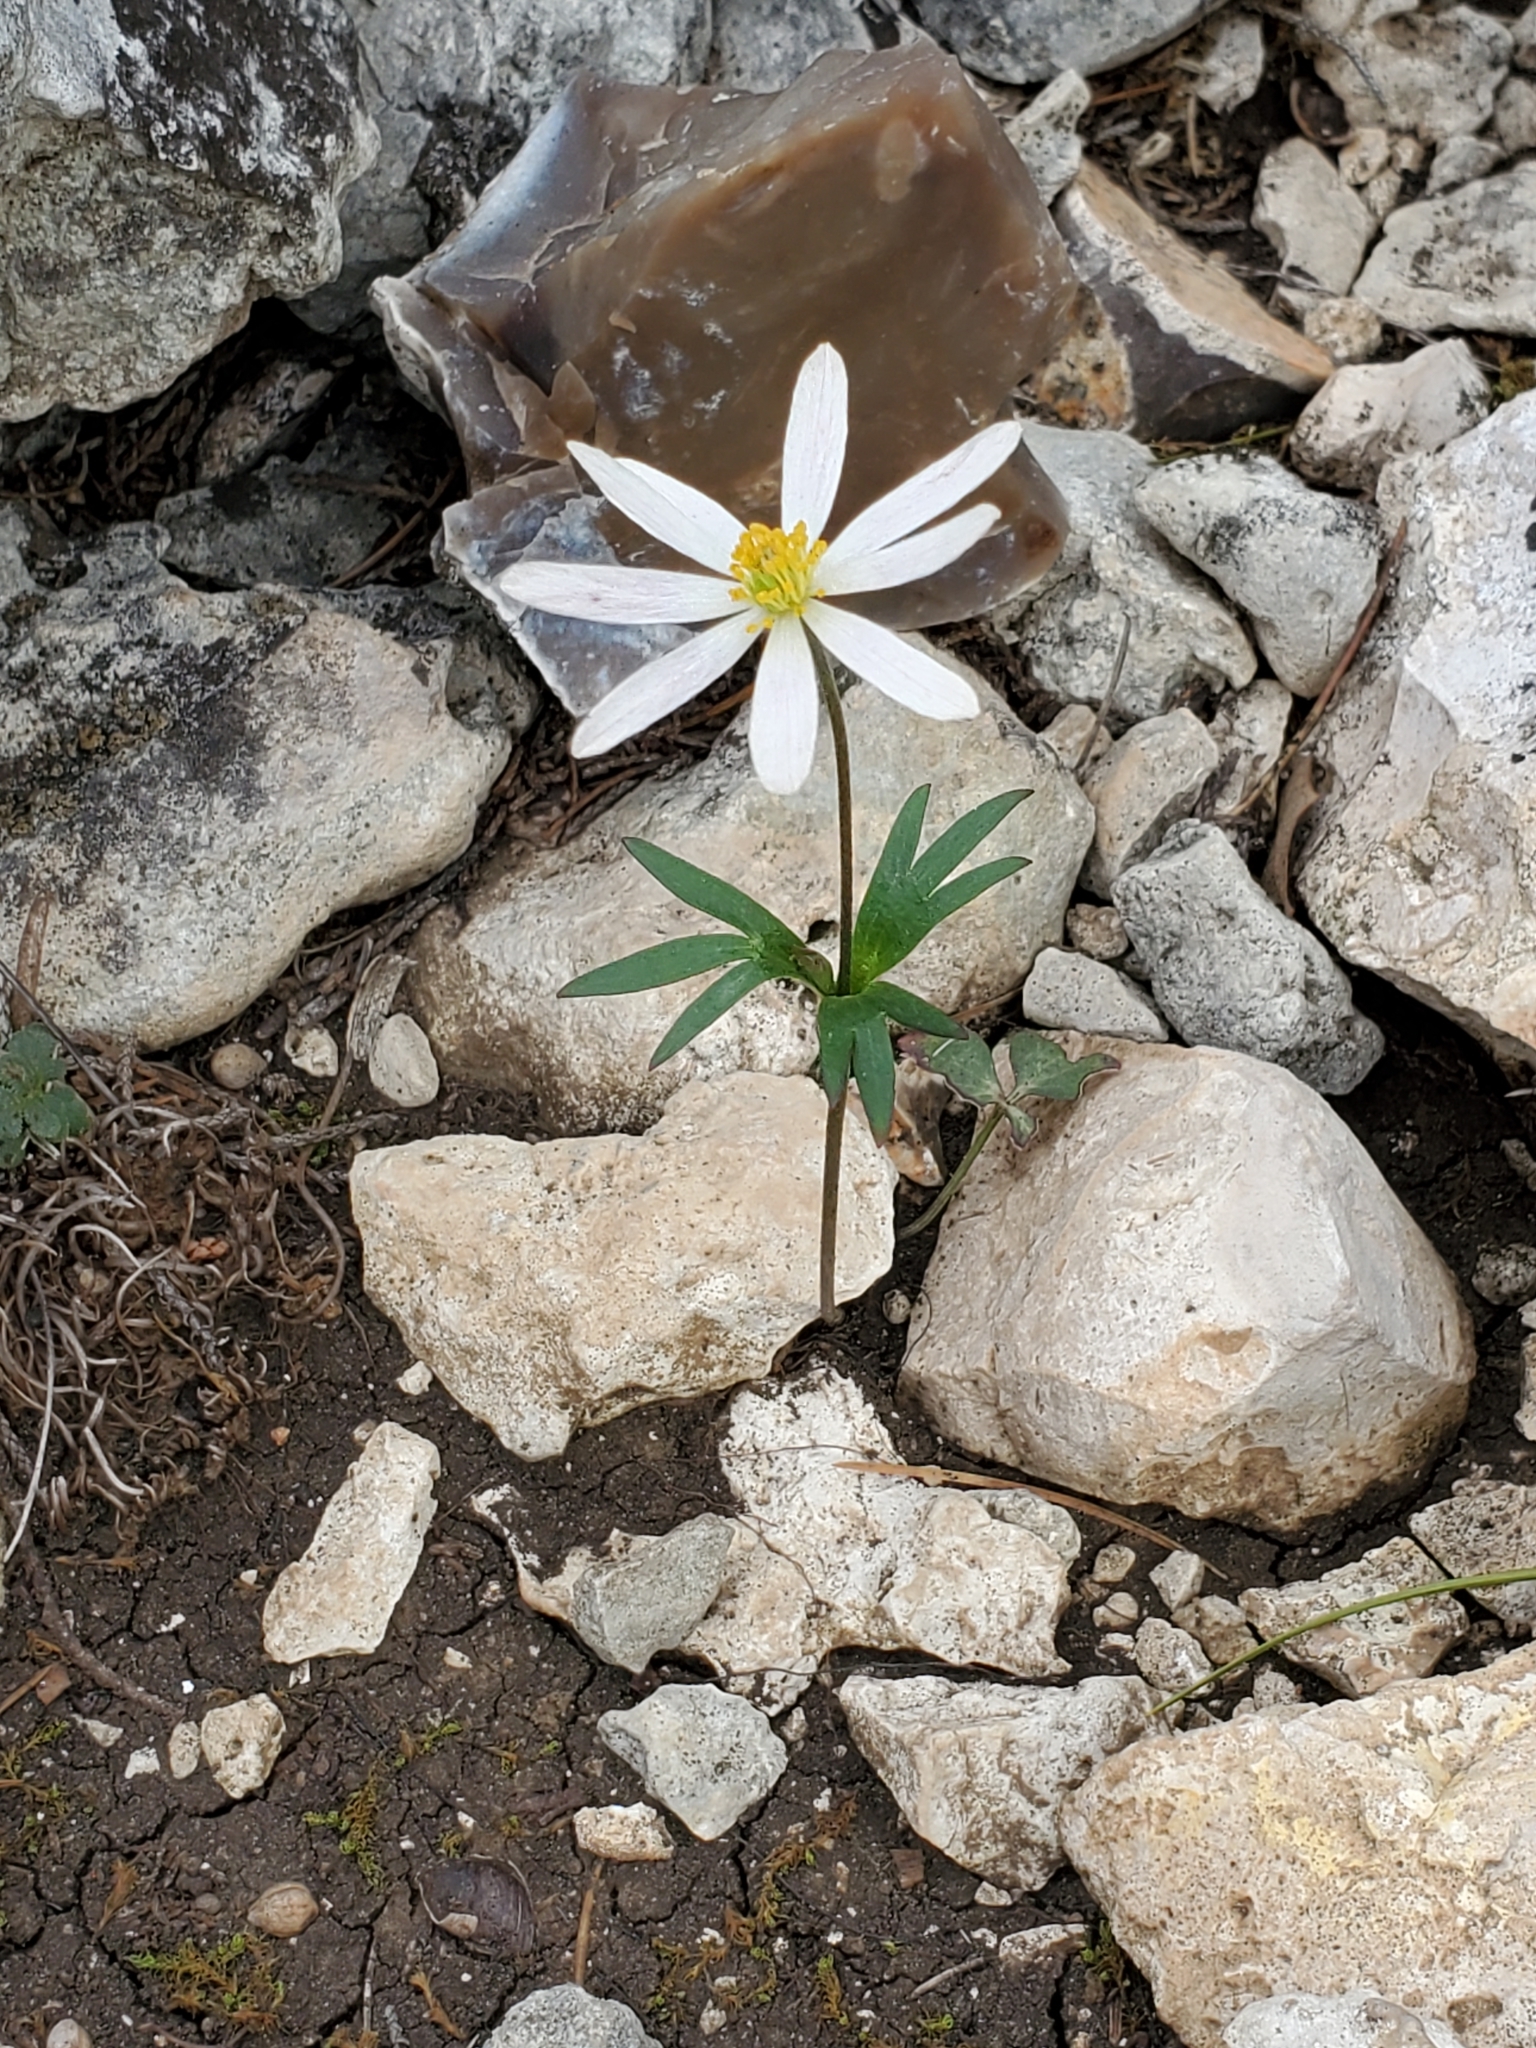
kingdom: Plantae
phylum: Tracheophyta
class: Magnoliopsida
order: Ranunculales
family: Ranunculaceae
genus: Anemone
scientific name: Anemone edwardsiana
